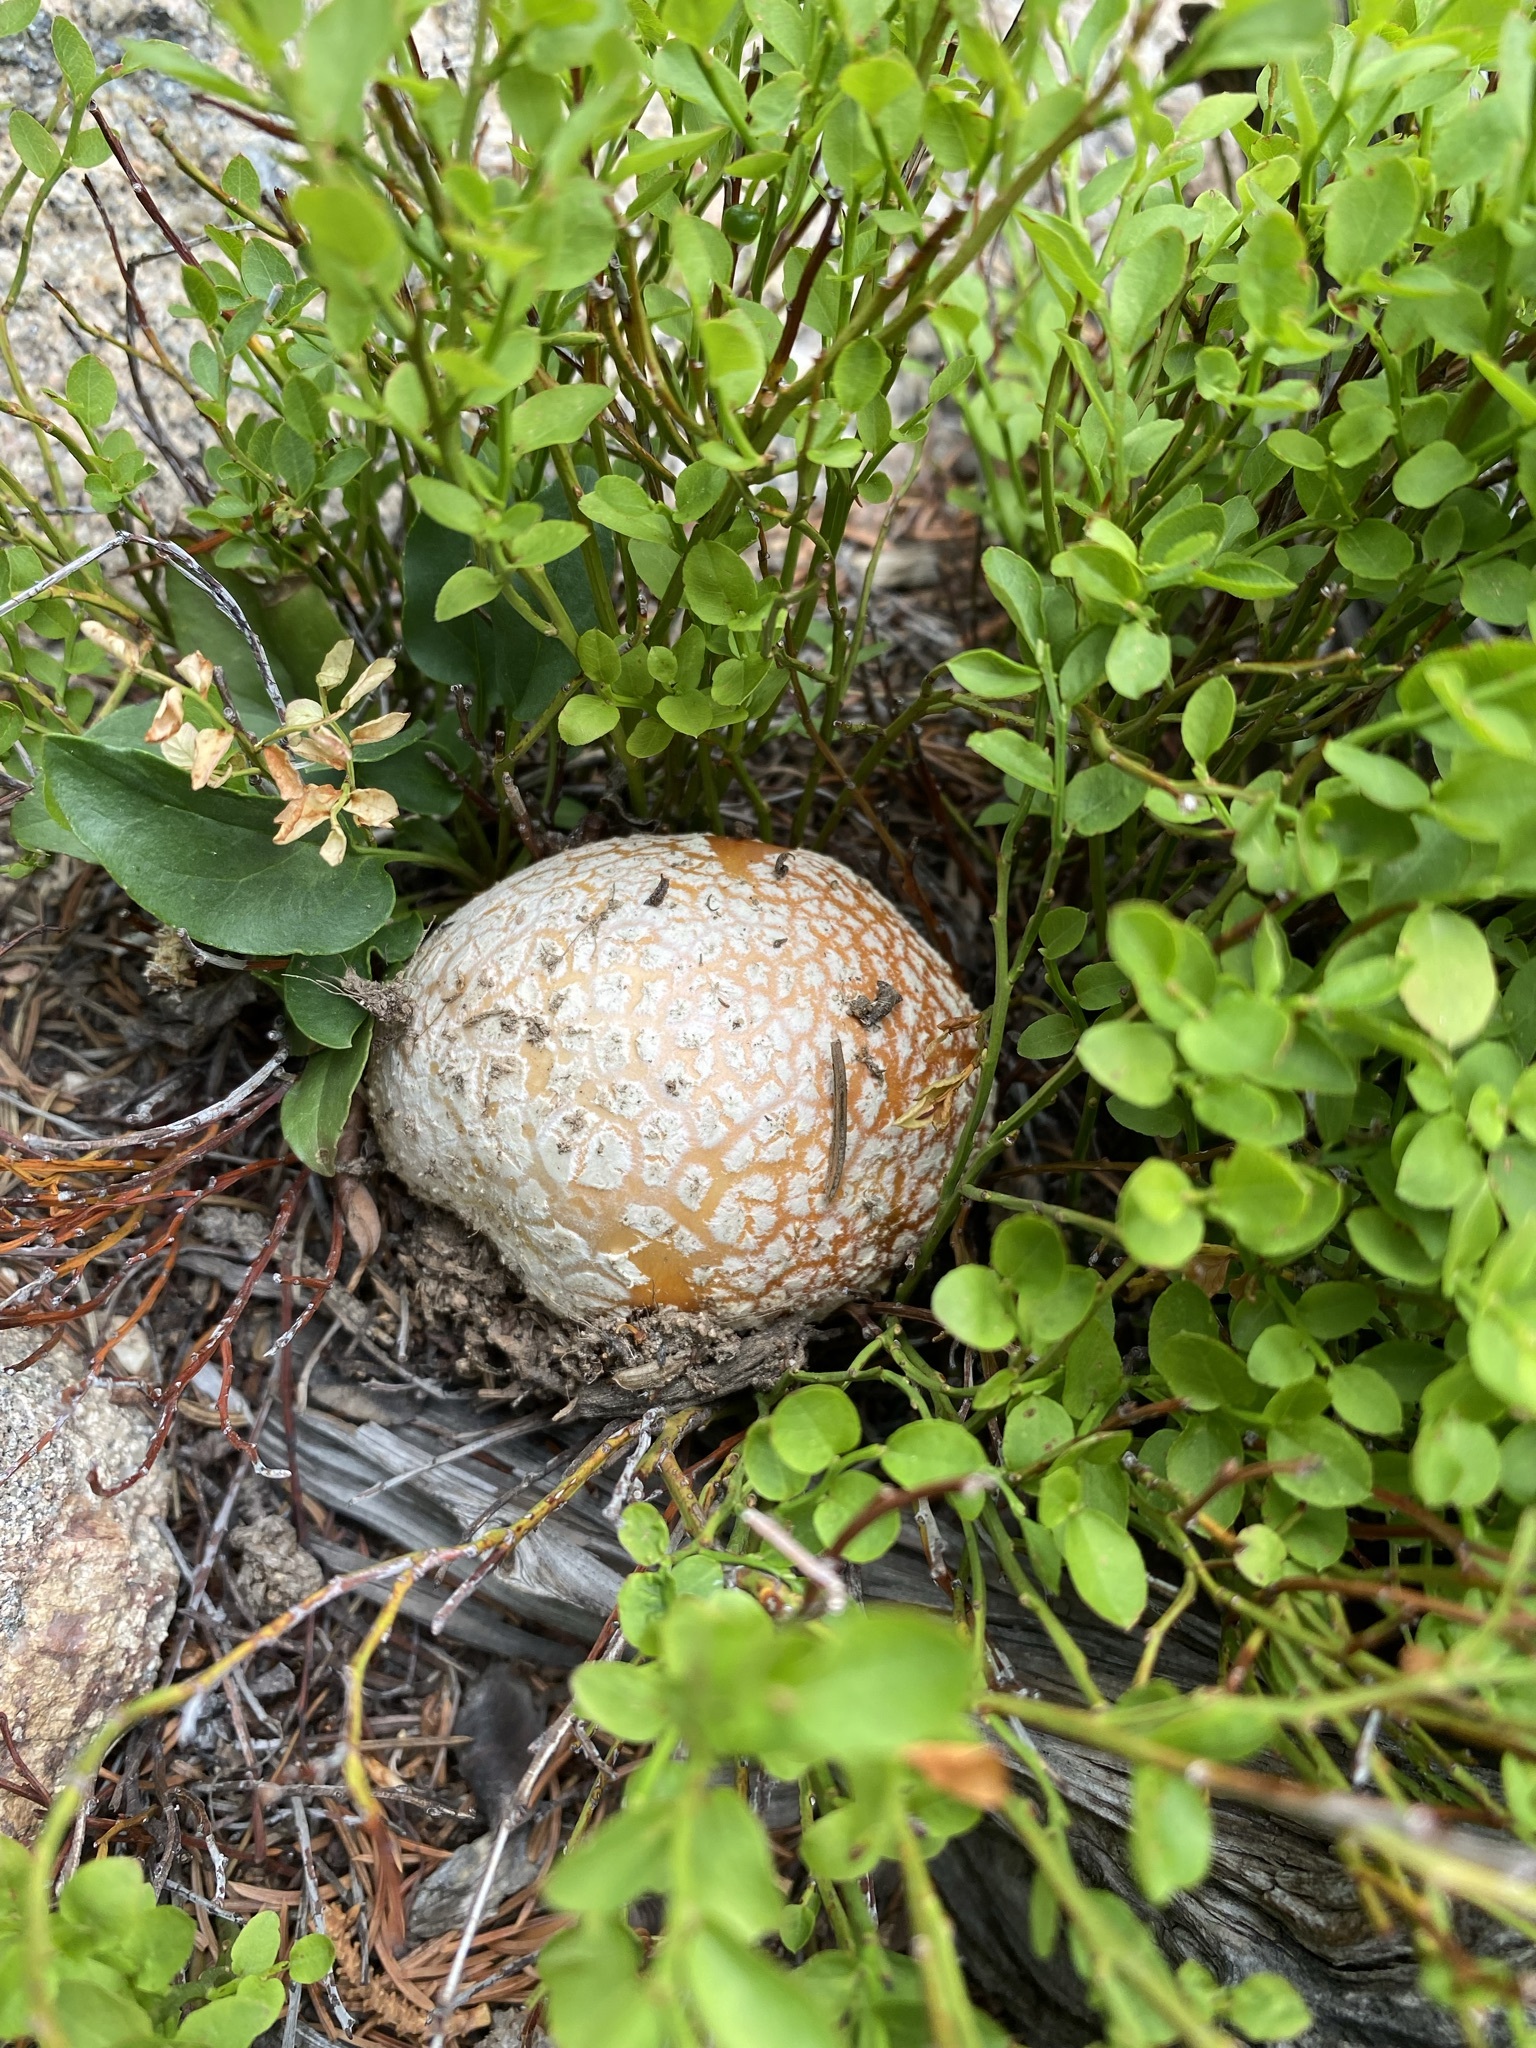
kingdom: Fungi
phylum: Basidiomycota
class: Agaricomycetes
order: Agaricales
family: Amanitaceae
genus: Amanita
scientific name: Amanita muscaria
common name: Fly agaric
